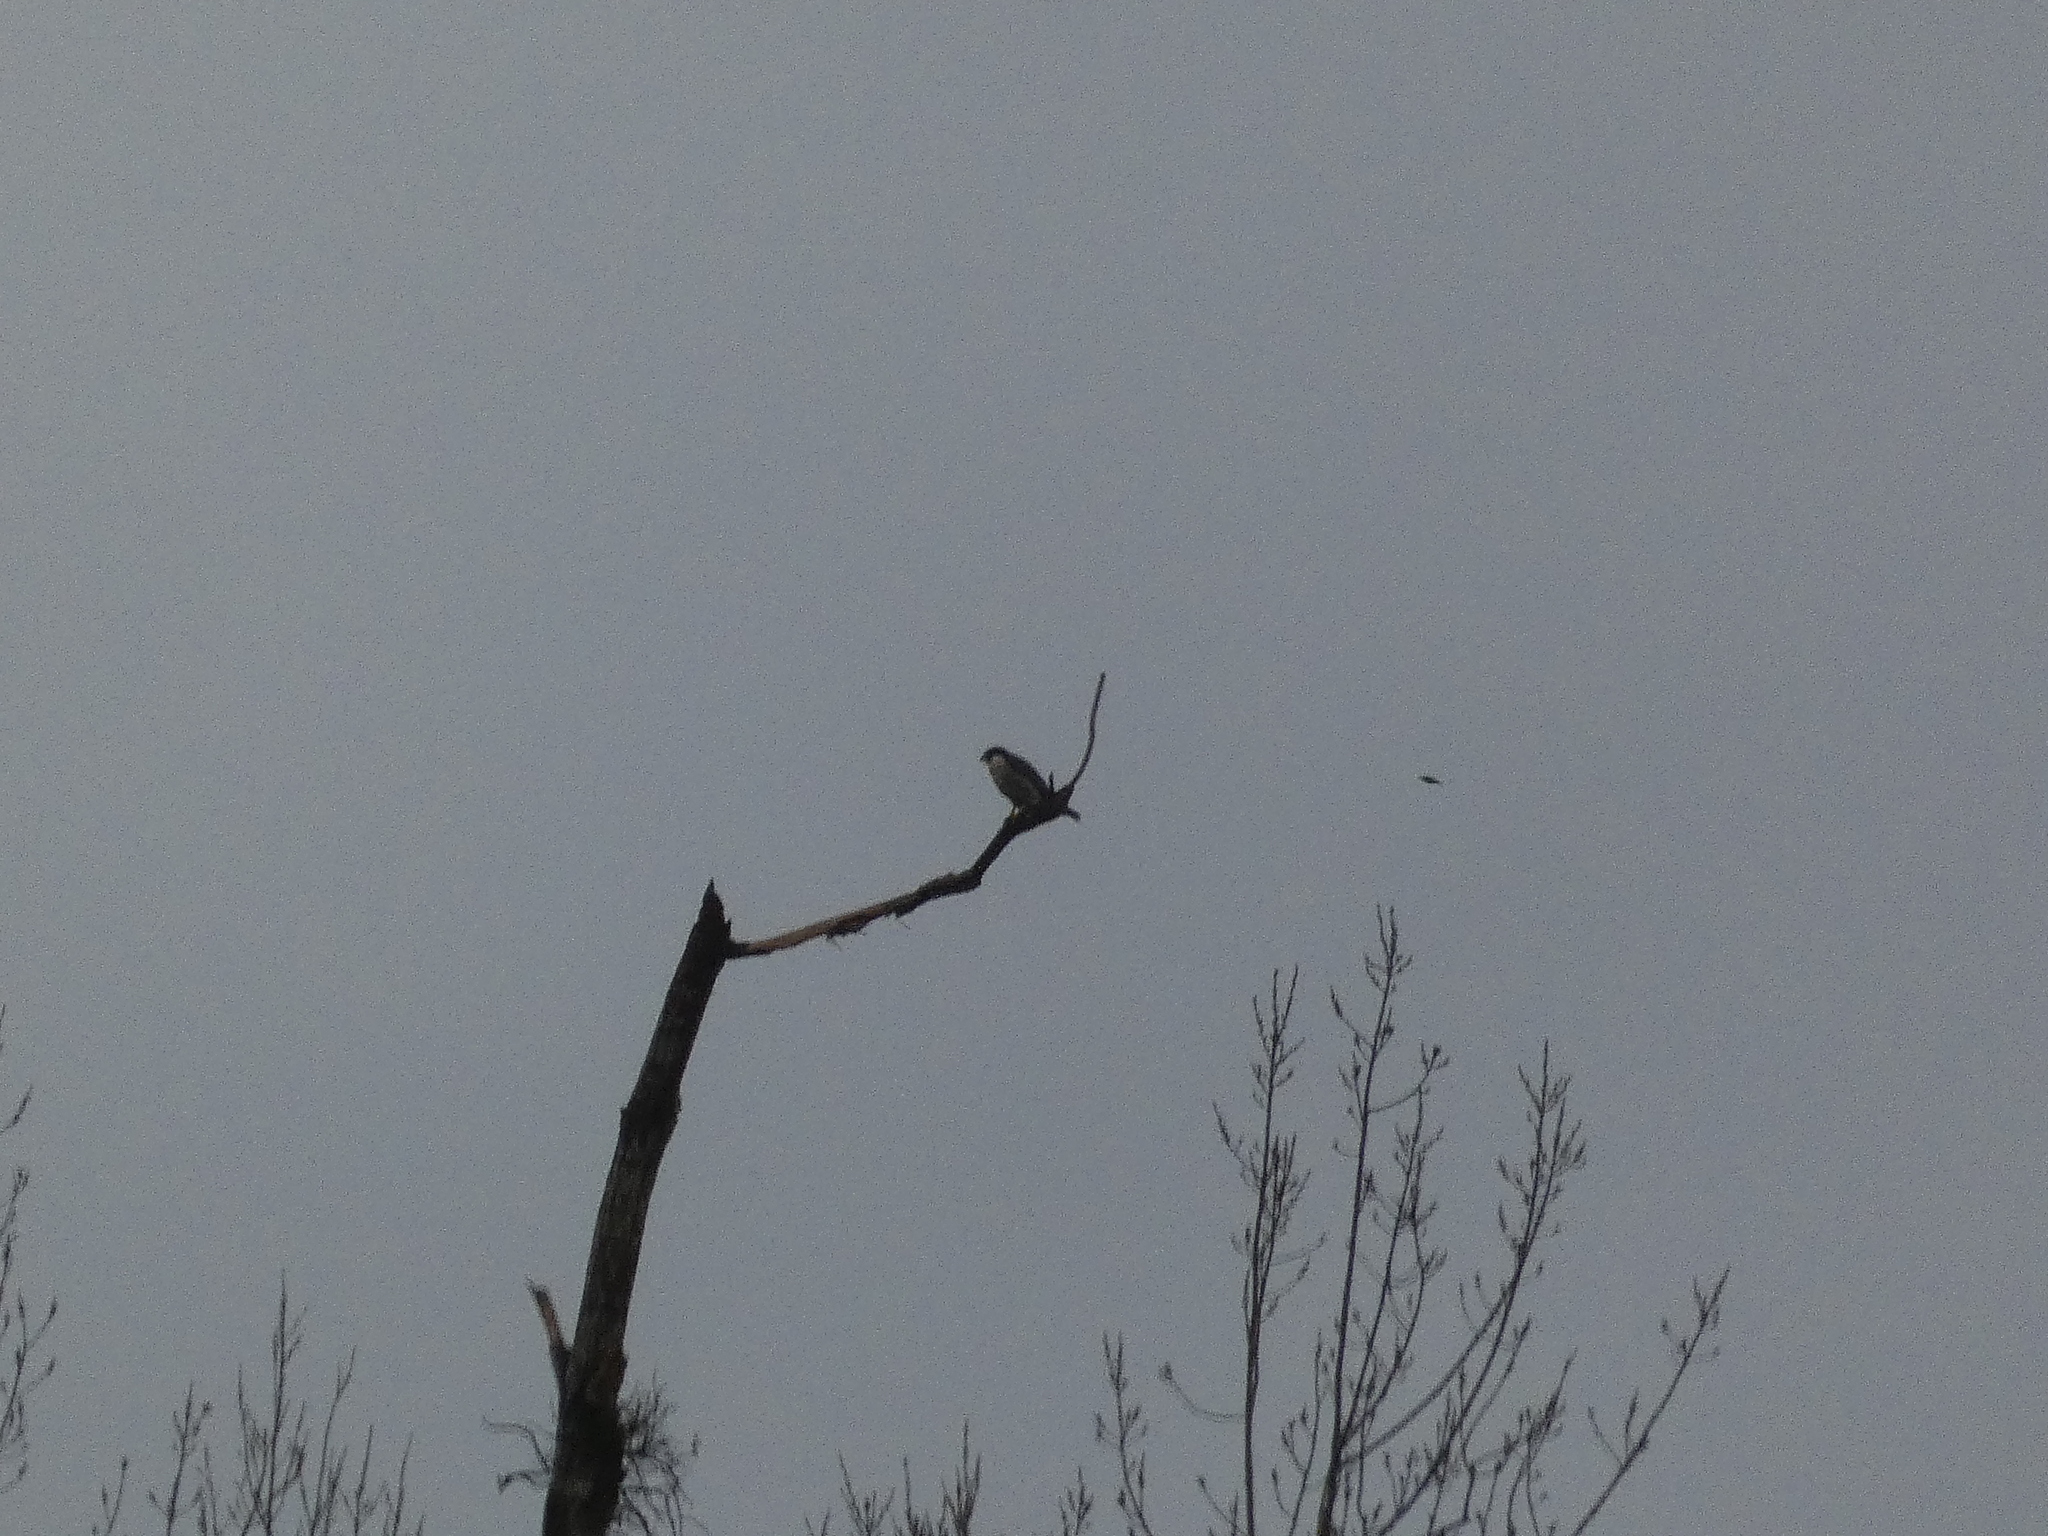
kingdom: Animalia
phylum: Chordata
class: Aves
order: Falconiformes
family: Falconidae
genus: Falco
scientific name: Falco peregrinus
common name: Peregrine falcon
